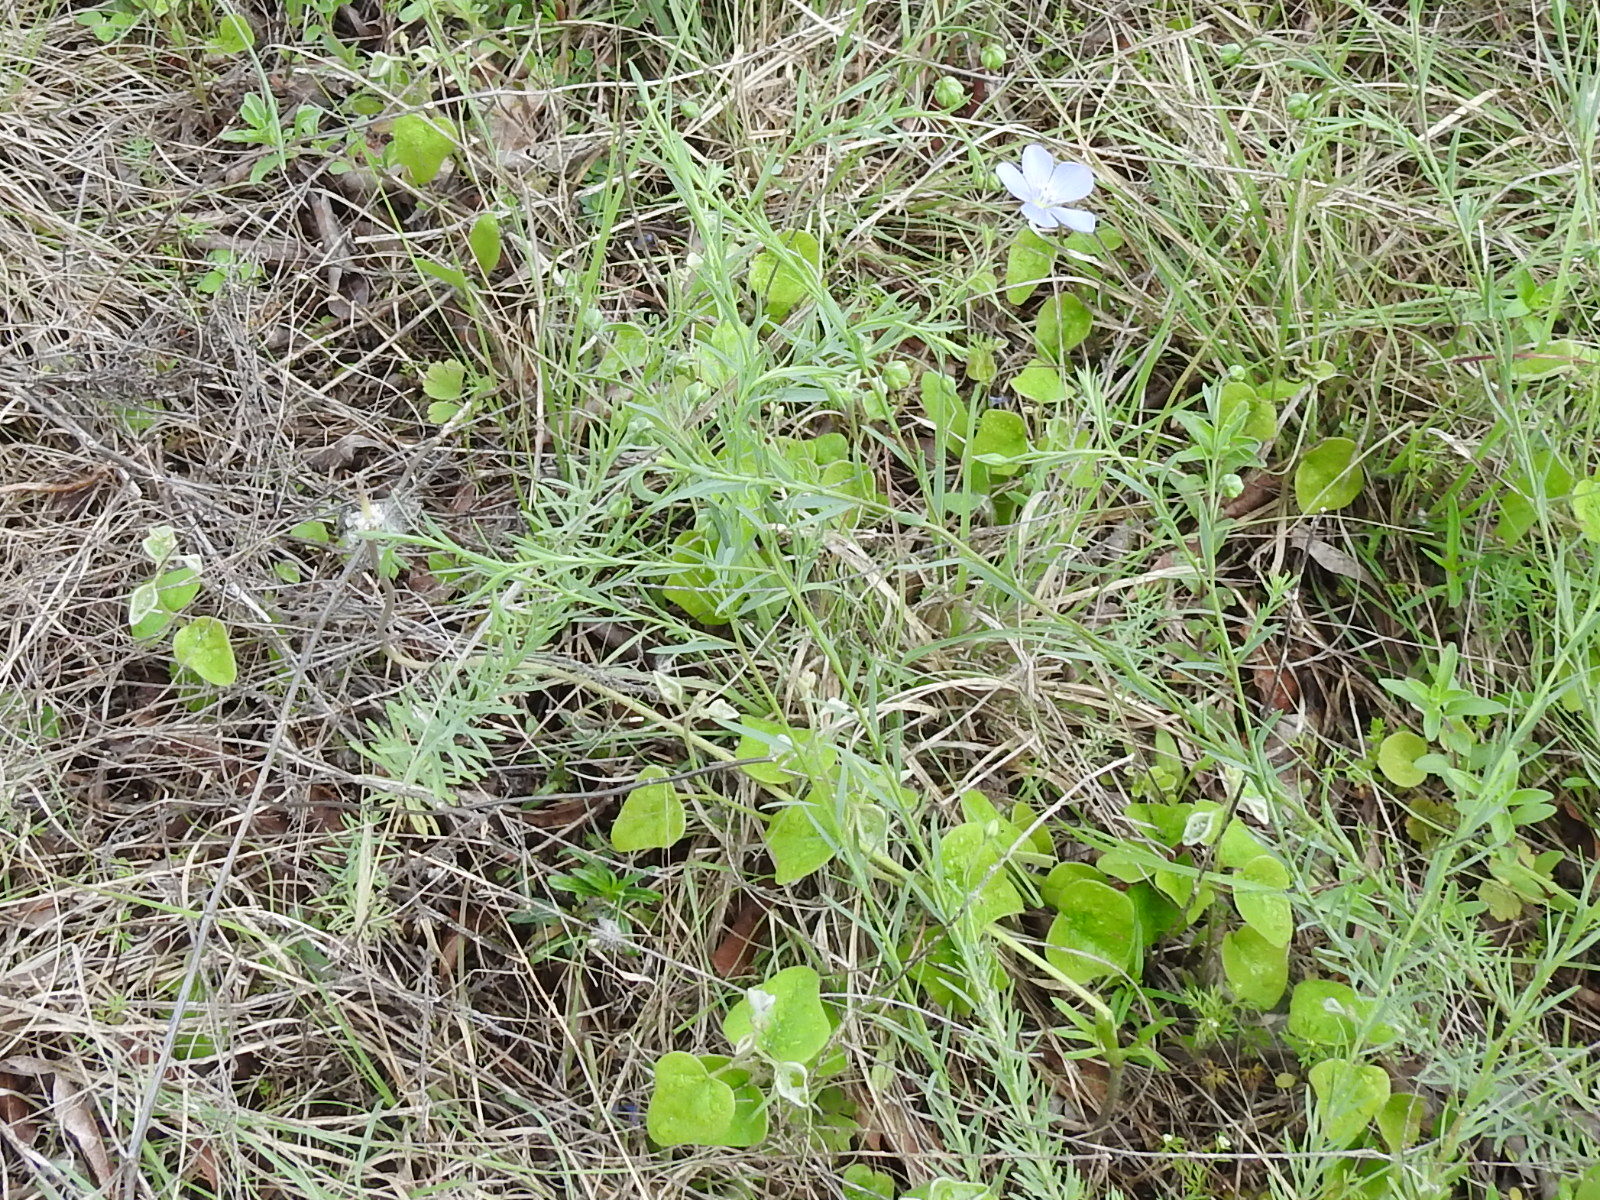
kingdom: Plantae
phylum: Tracheophyta
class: Magnoliopsida
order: Malpighiales
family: Linaceae
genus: Linum
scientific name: Linum pratense
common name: Norton's flax
